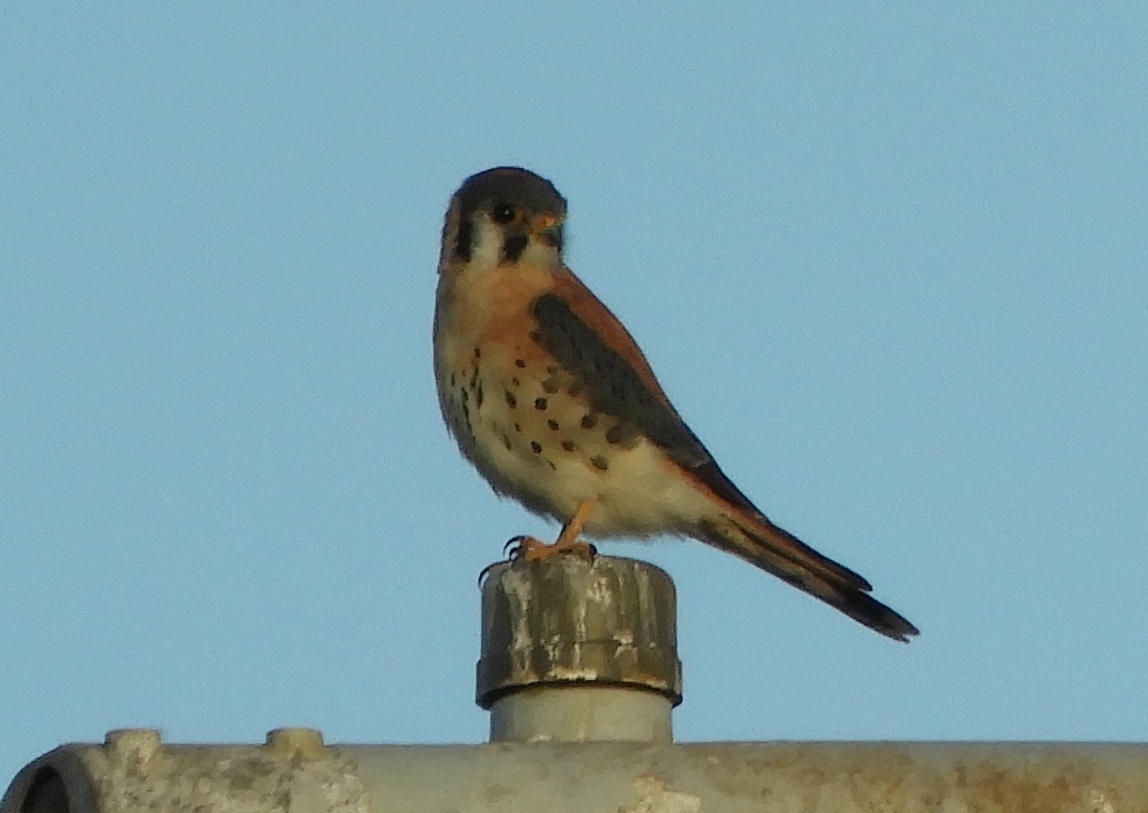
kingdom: Animalia
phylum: Chordata
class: Aves
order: Falconiformes
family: Falconidae
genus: Falco
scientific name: Falco sparverius
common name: American kestrel
